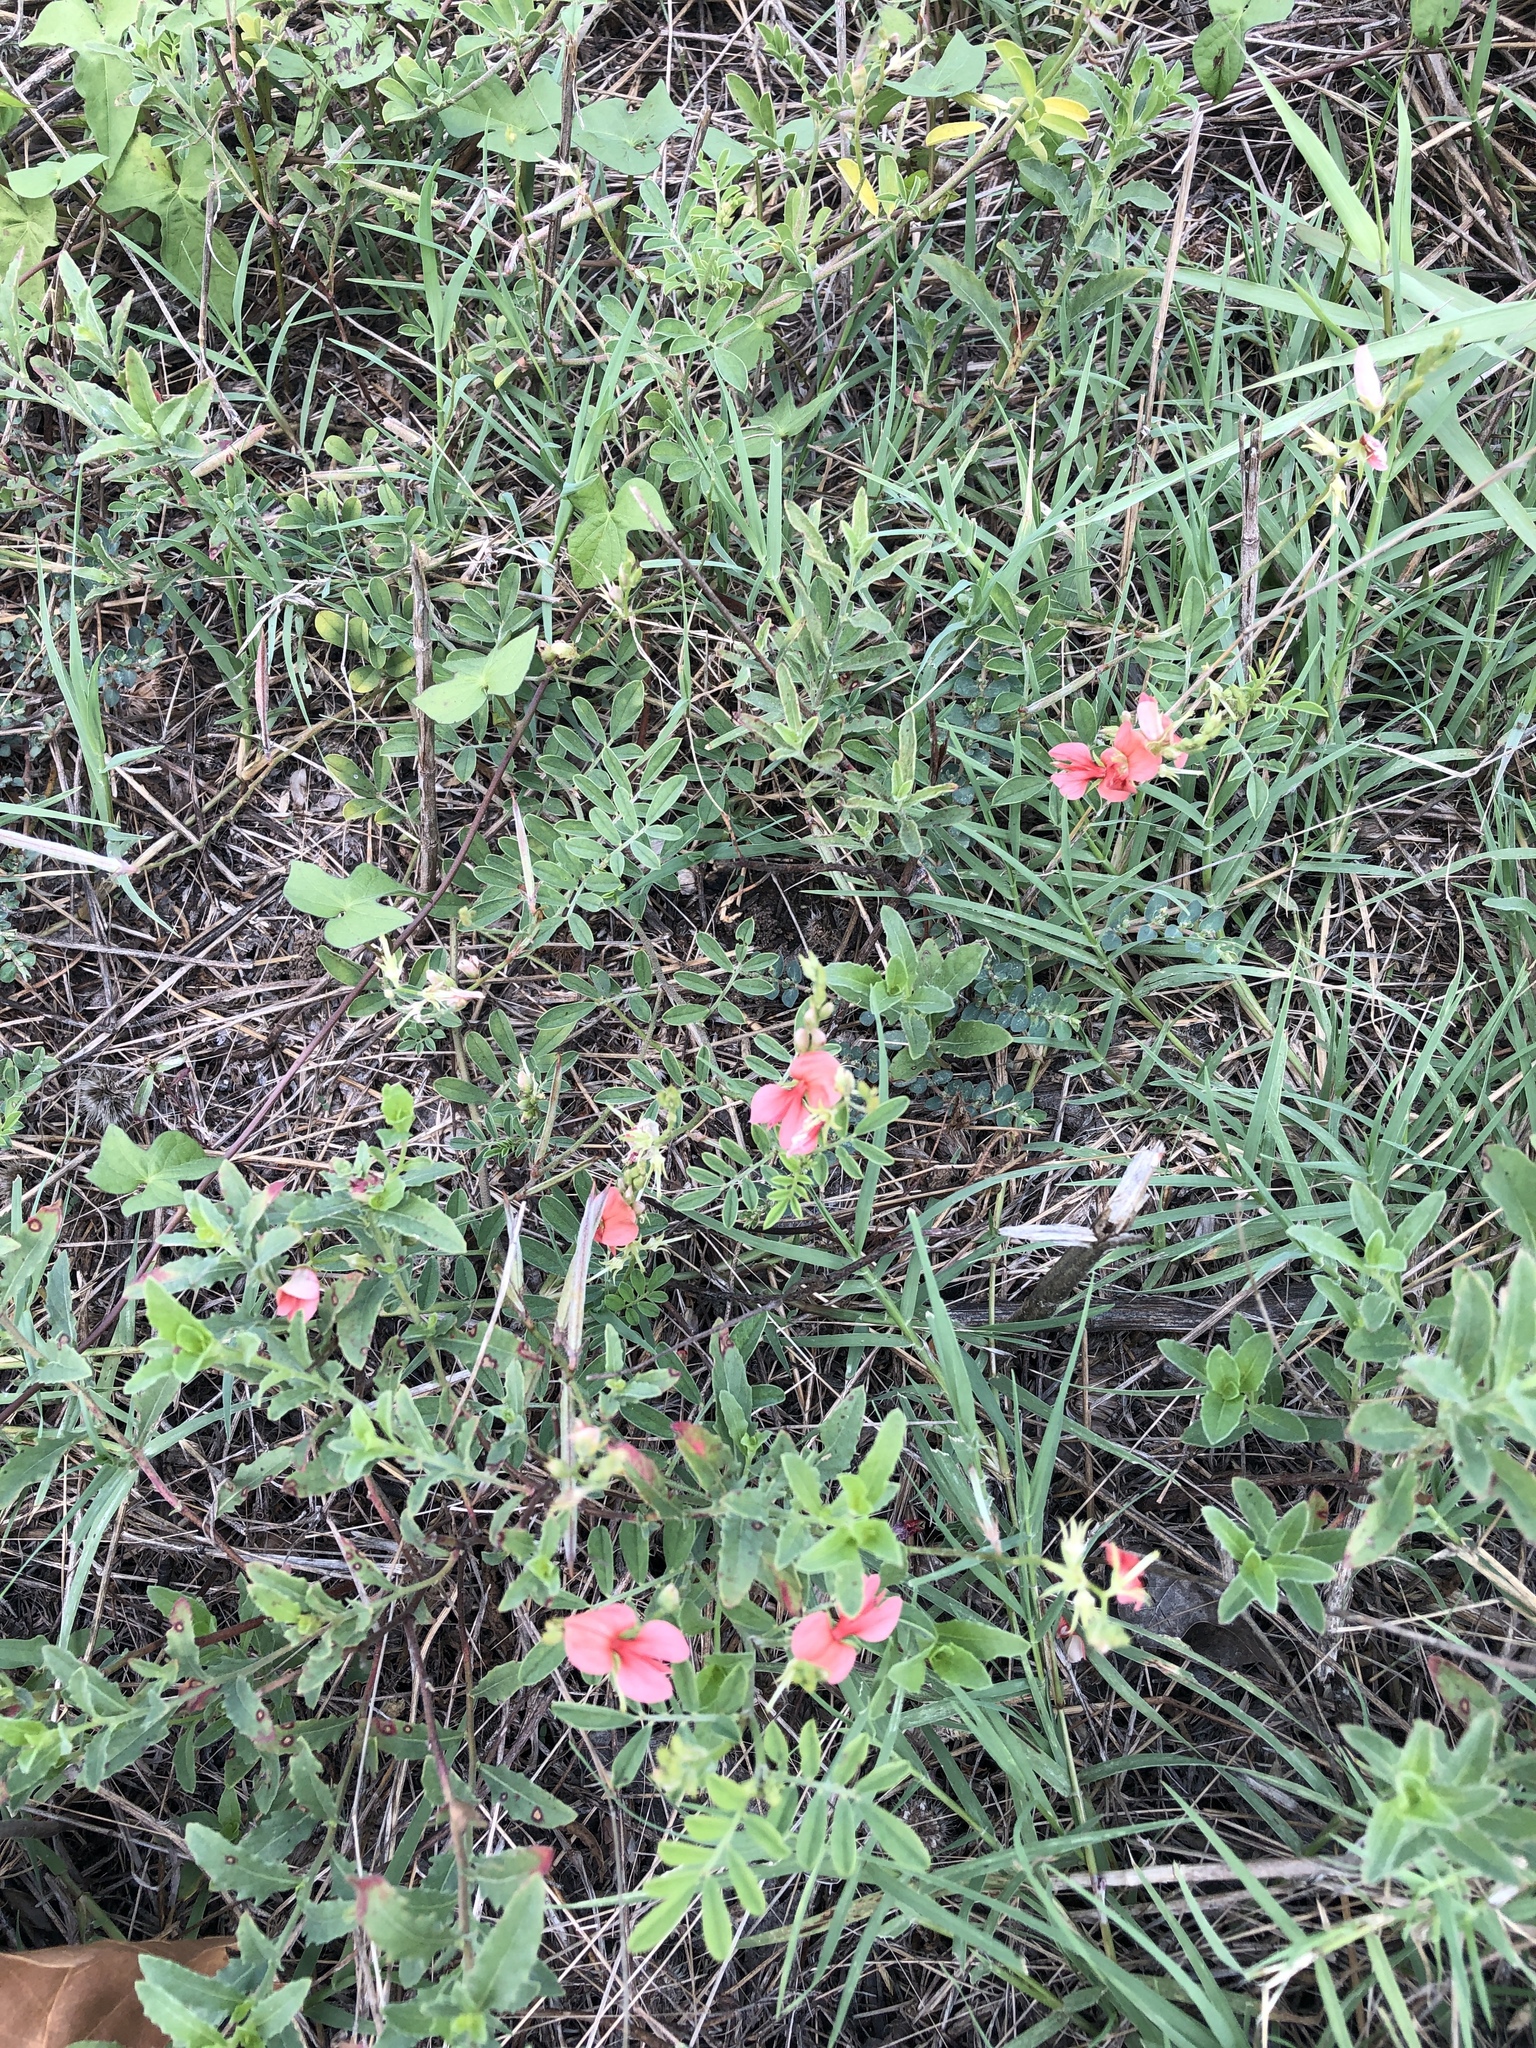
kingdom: Plantae
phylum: Tracheophyta
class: Magnoliopsida
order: Fabales
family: Fabaceae
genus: Indigofera
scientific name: Indigofera miniata
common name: Coast indigo
